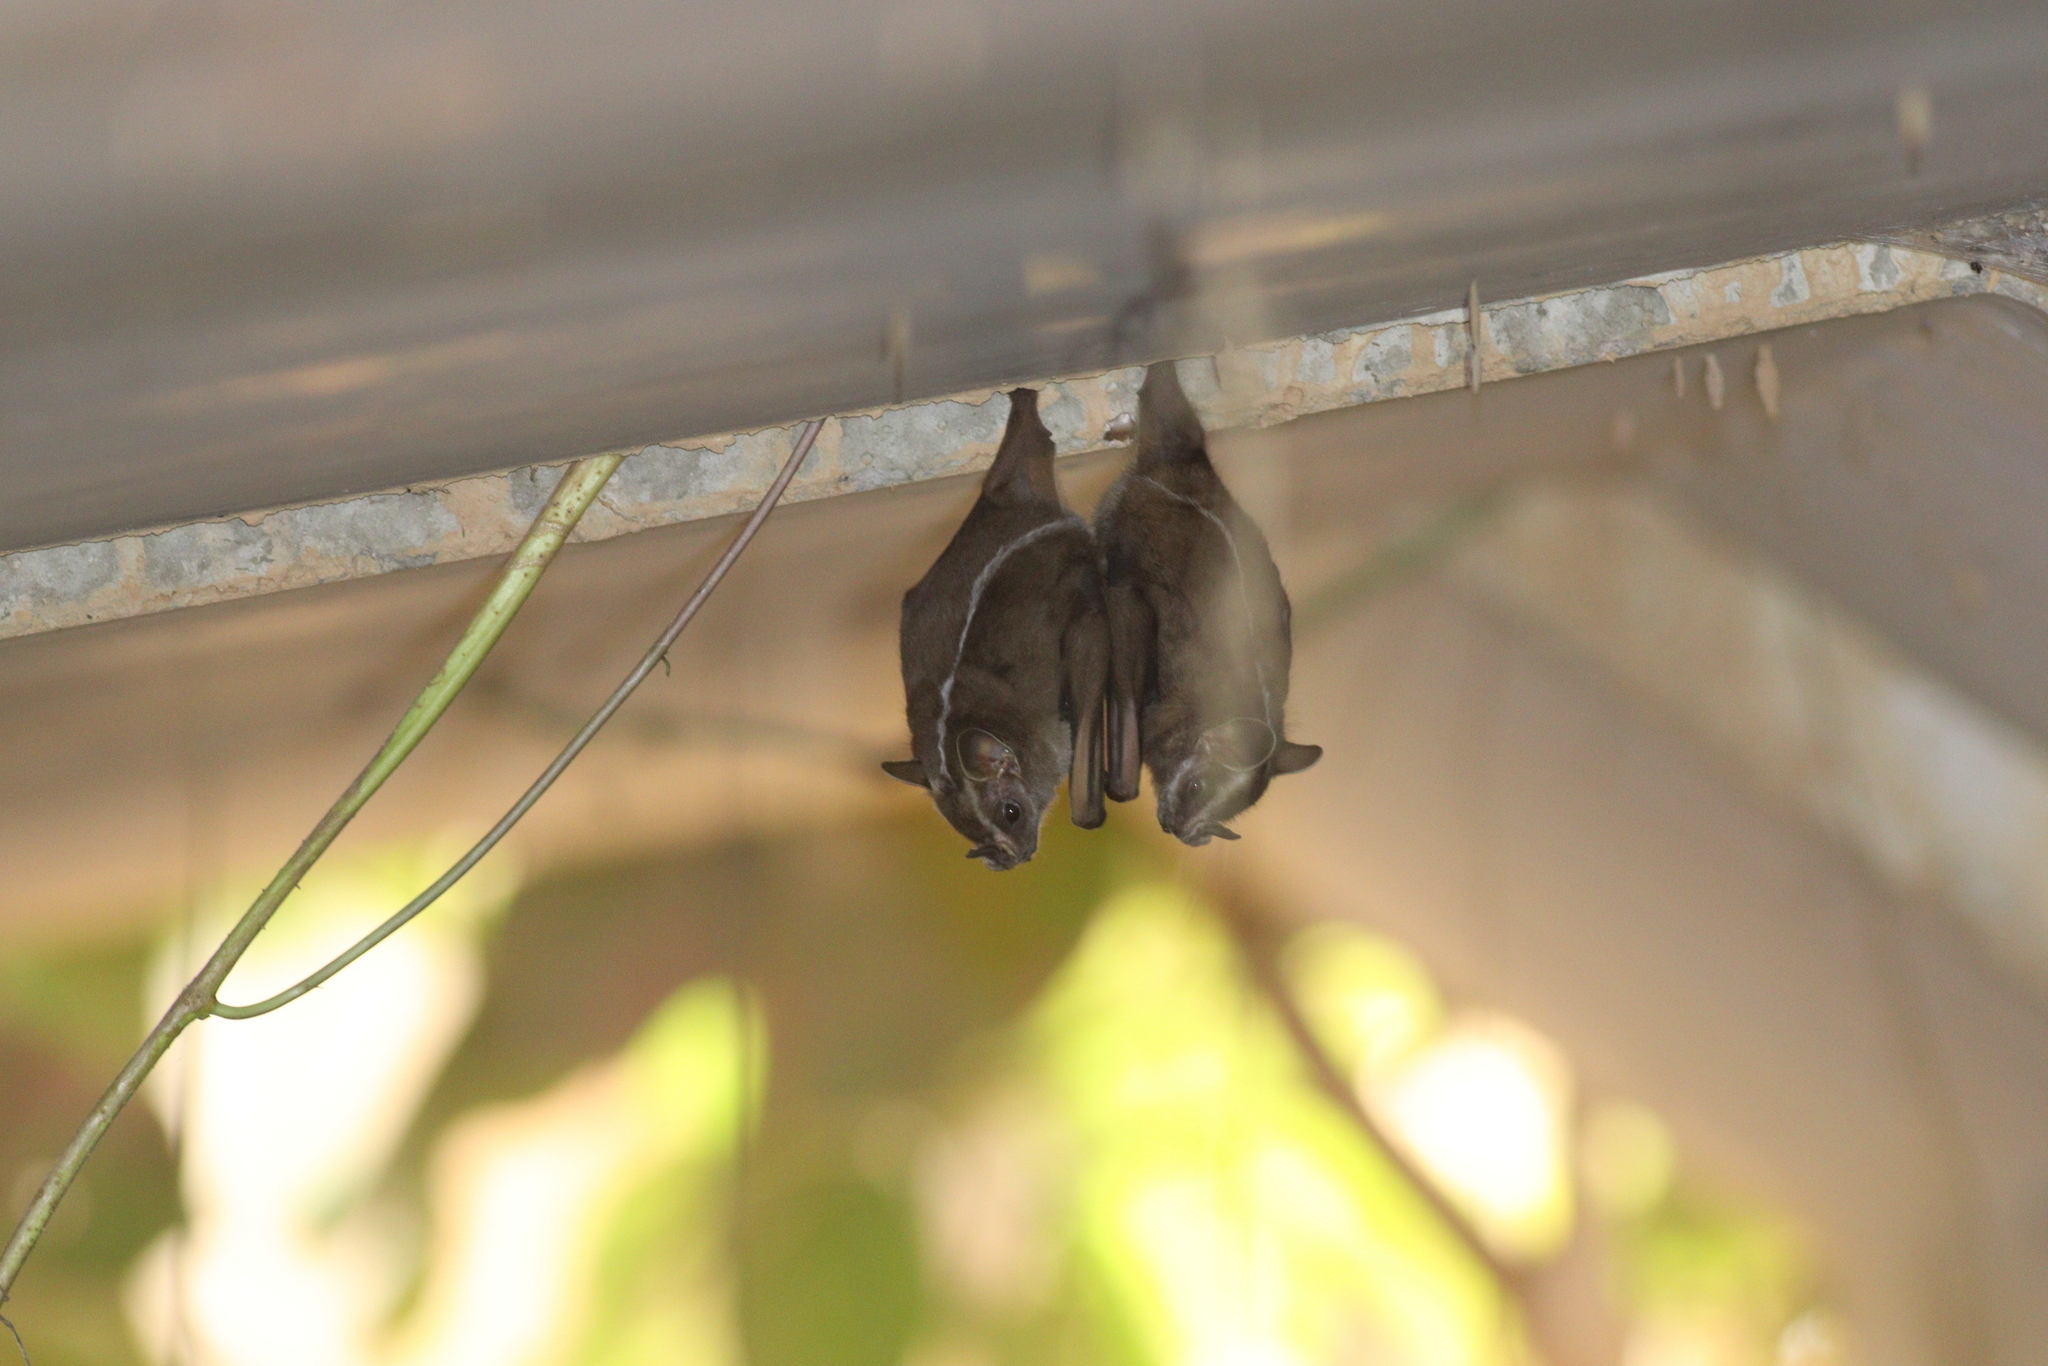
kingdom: Animalia
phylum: Chordata
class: Mammalia
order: Chiroptera
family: Phyllostomidae
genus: Platyrrhinus
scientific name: Platyrrhinus lineatus
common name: White-lined broad-nosed bat
